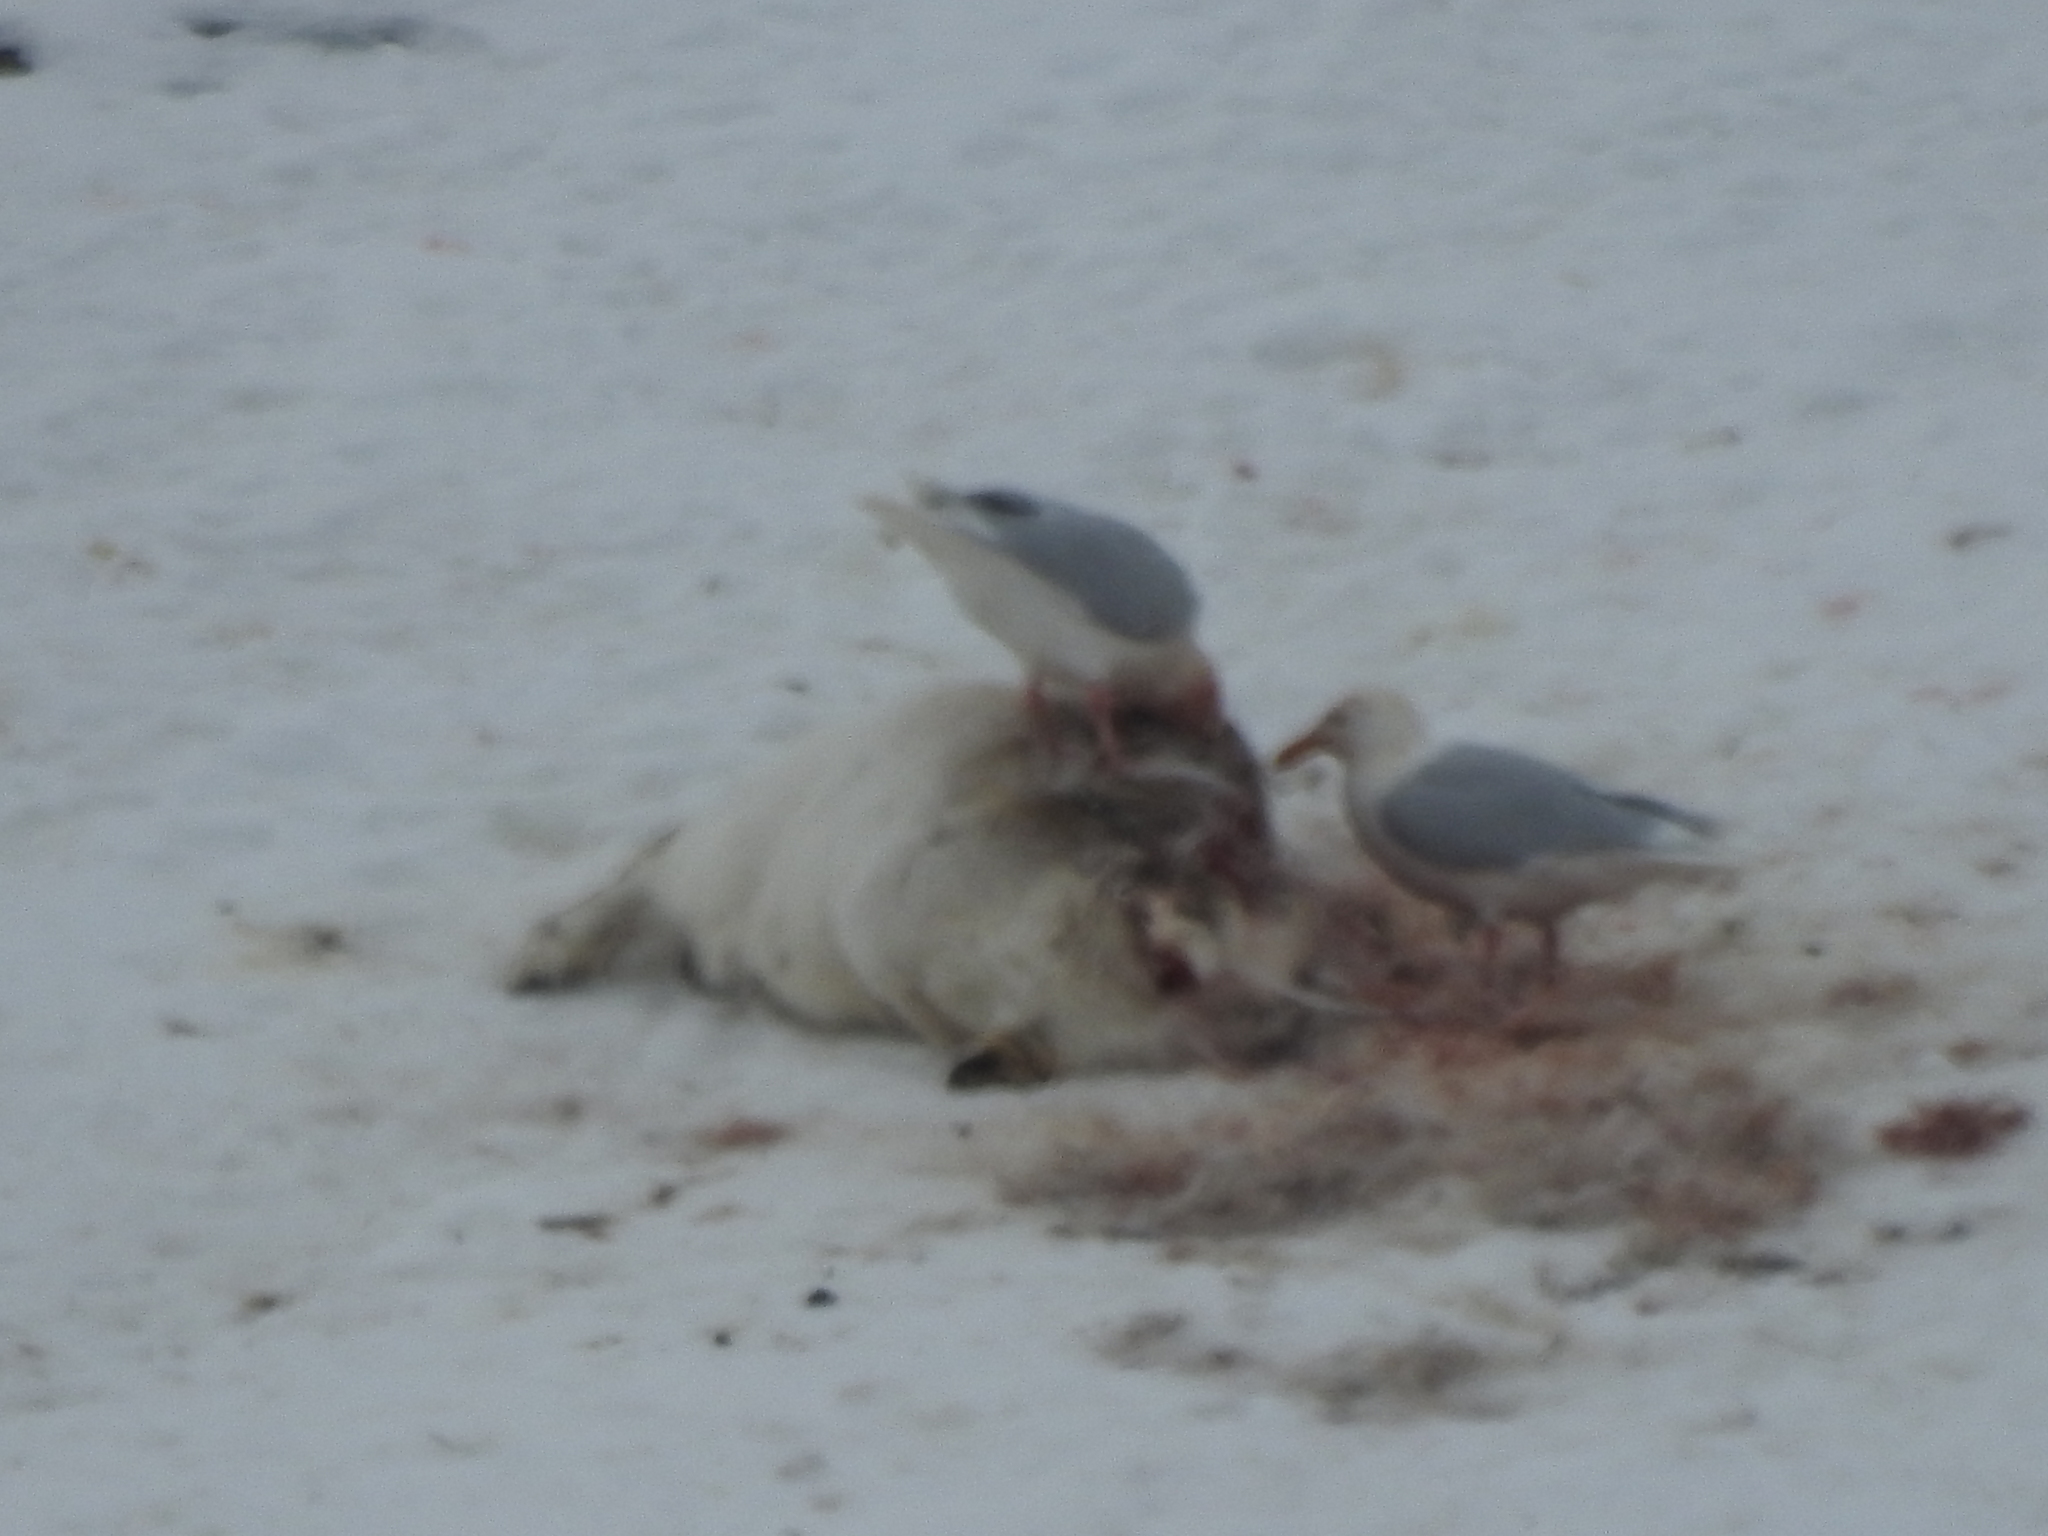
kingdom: Animalia
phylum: Chordata
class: Mammalia
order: Artiodactyla
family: Cervidae
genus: Rangifer
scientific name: Rangifer tarandus
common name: Reindeer
